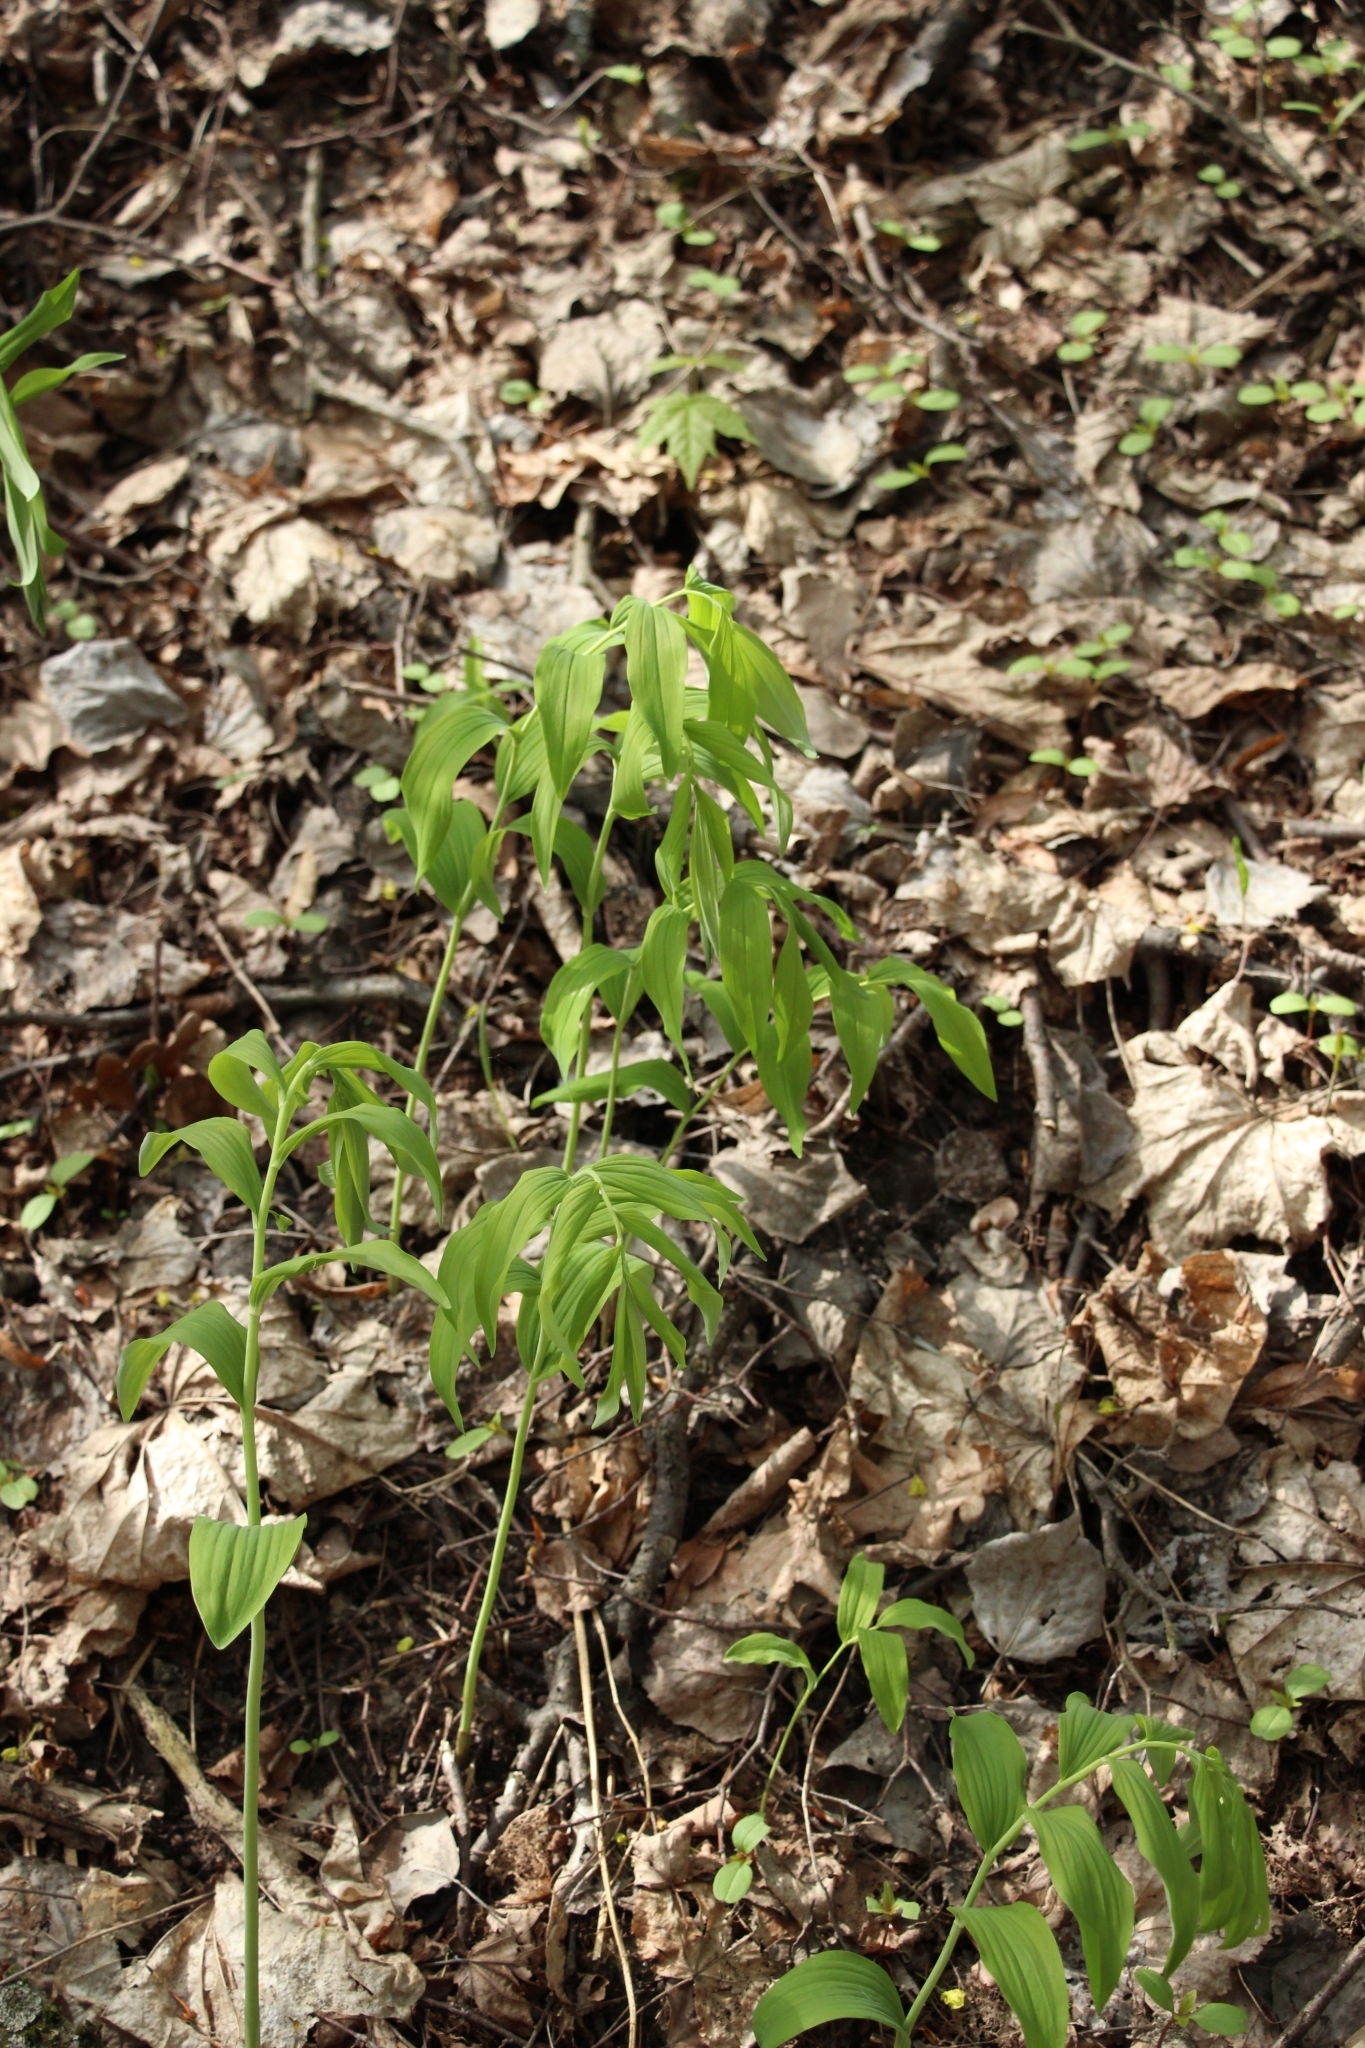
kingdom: Plantae
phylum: Tracheophyta
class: Liliopsida
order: Asparagales
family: Asparagaceae
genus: Polygonatum
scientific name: Polygonatum multiflorum
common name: Solomon's-seal
